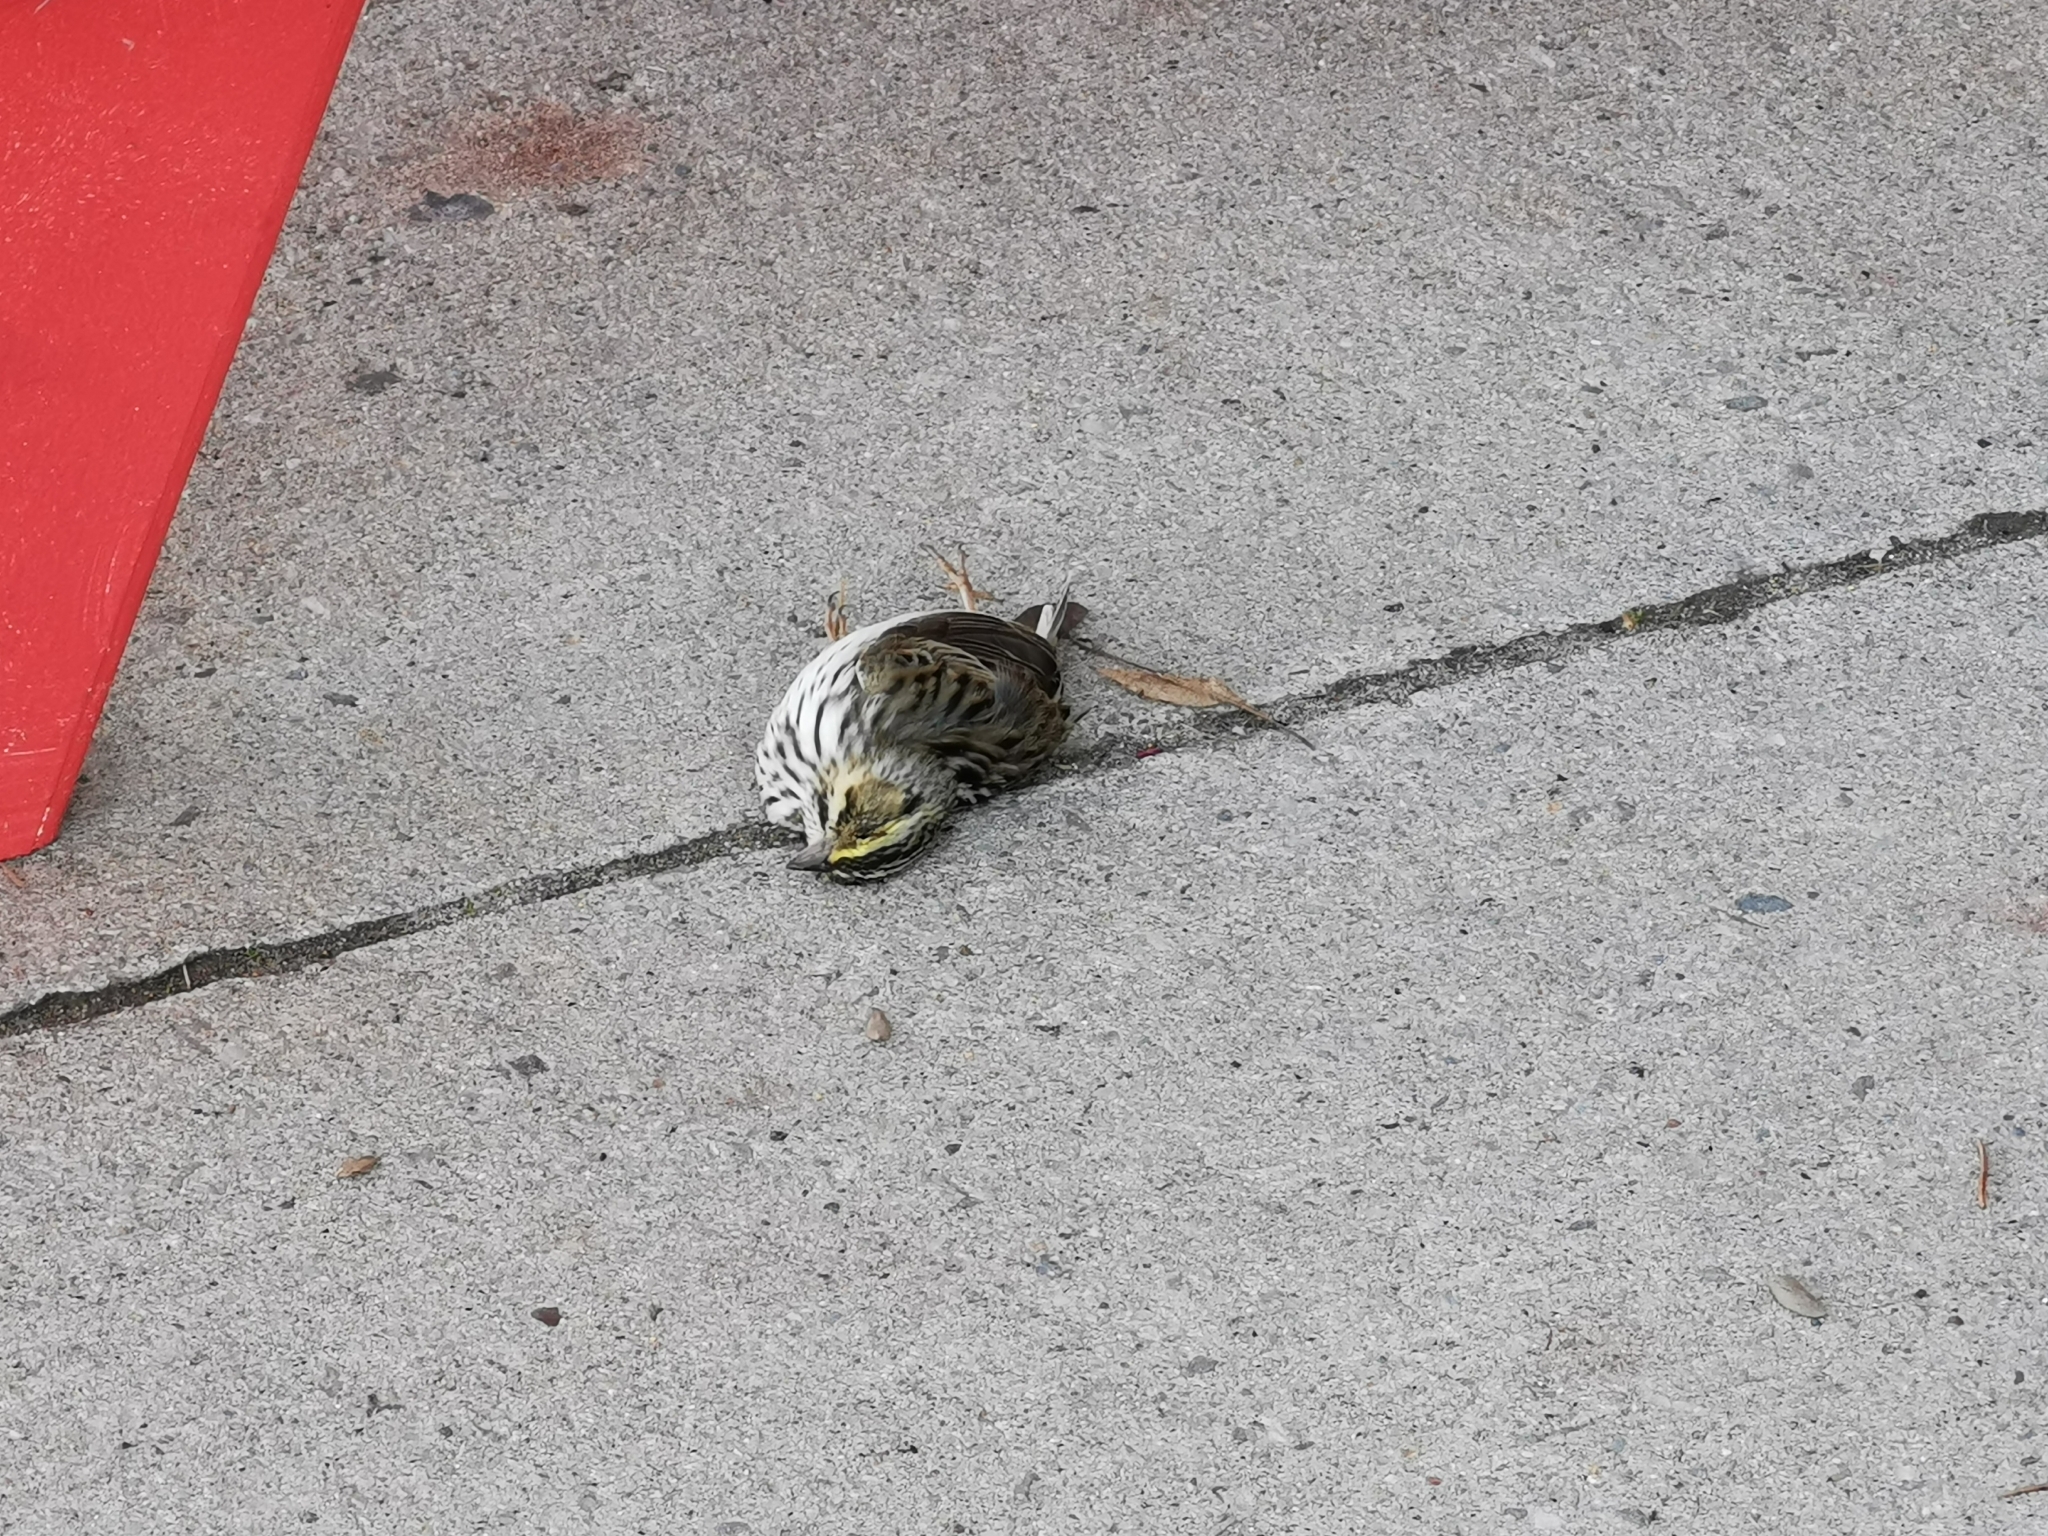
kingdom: Animalia
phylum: Chordata
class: Aves
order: Passeriformes
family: Passerellidae
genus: Passerculus
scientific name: Passerculus sandwichensis
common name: Savannah sparrow
